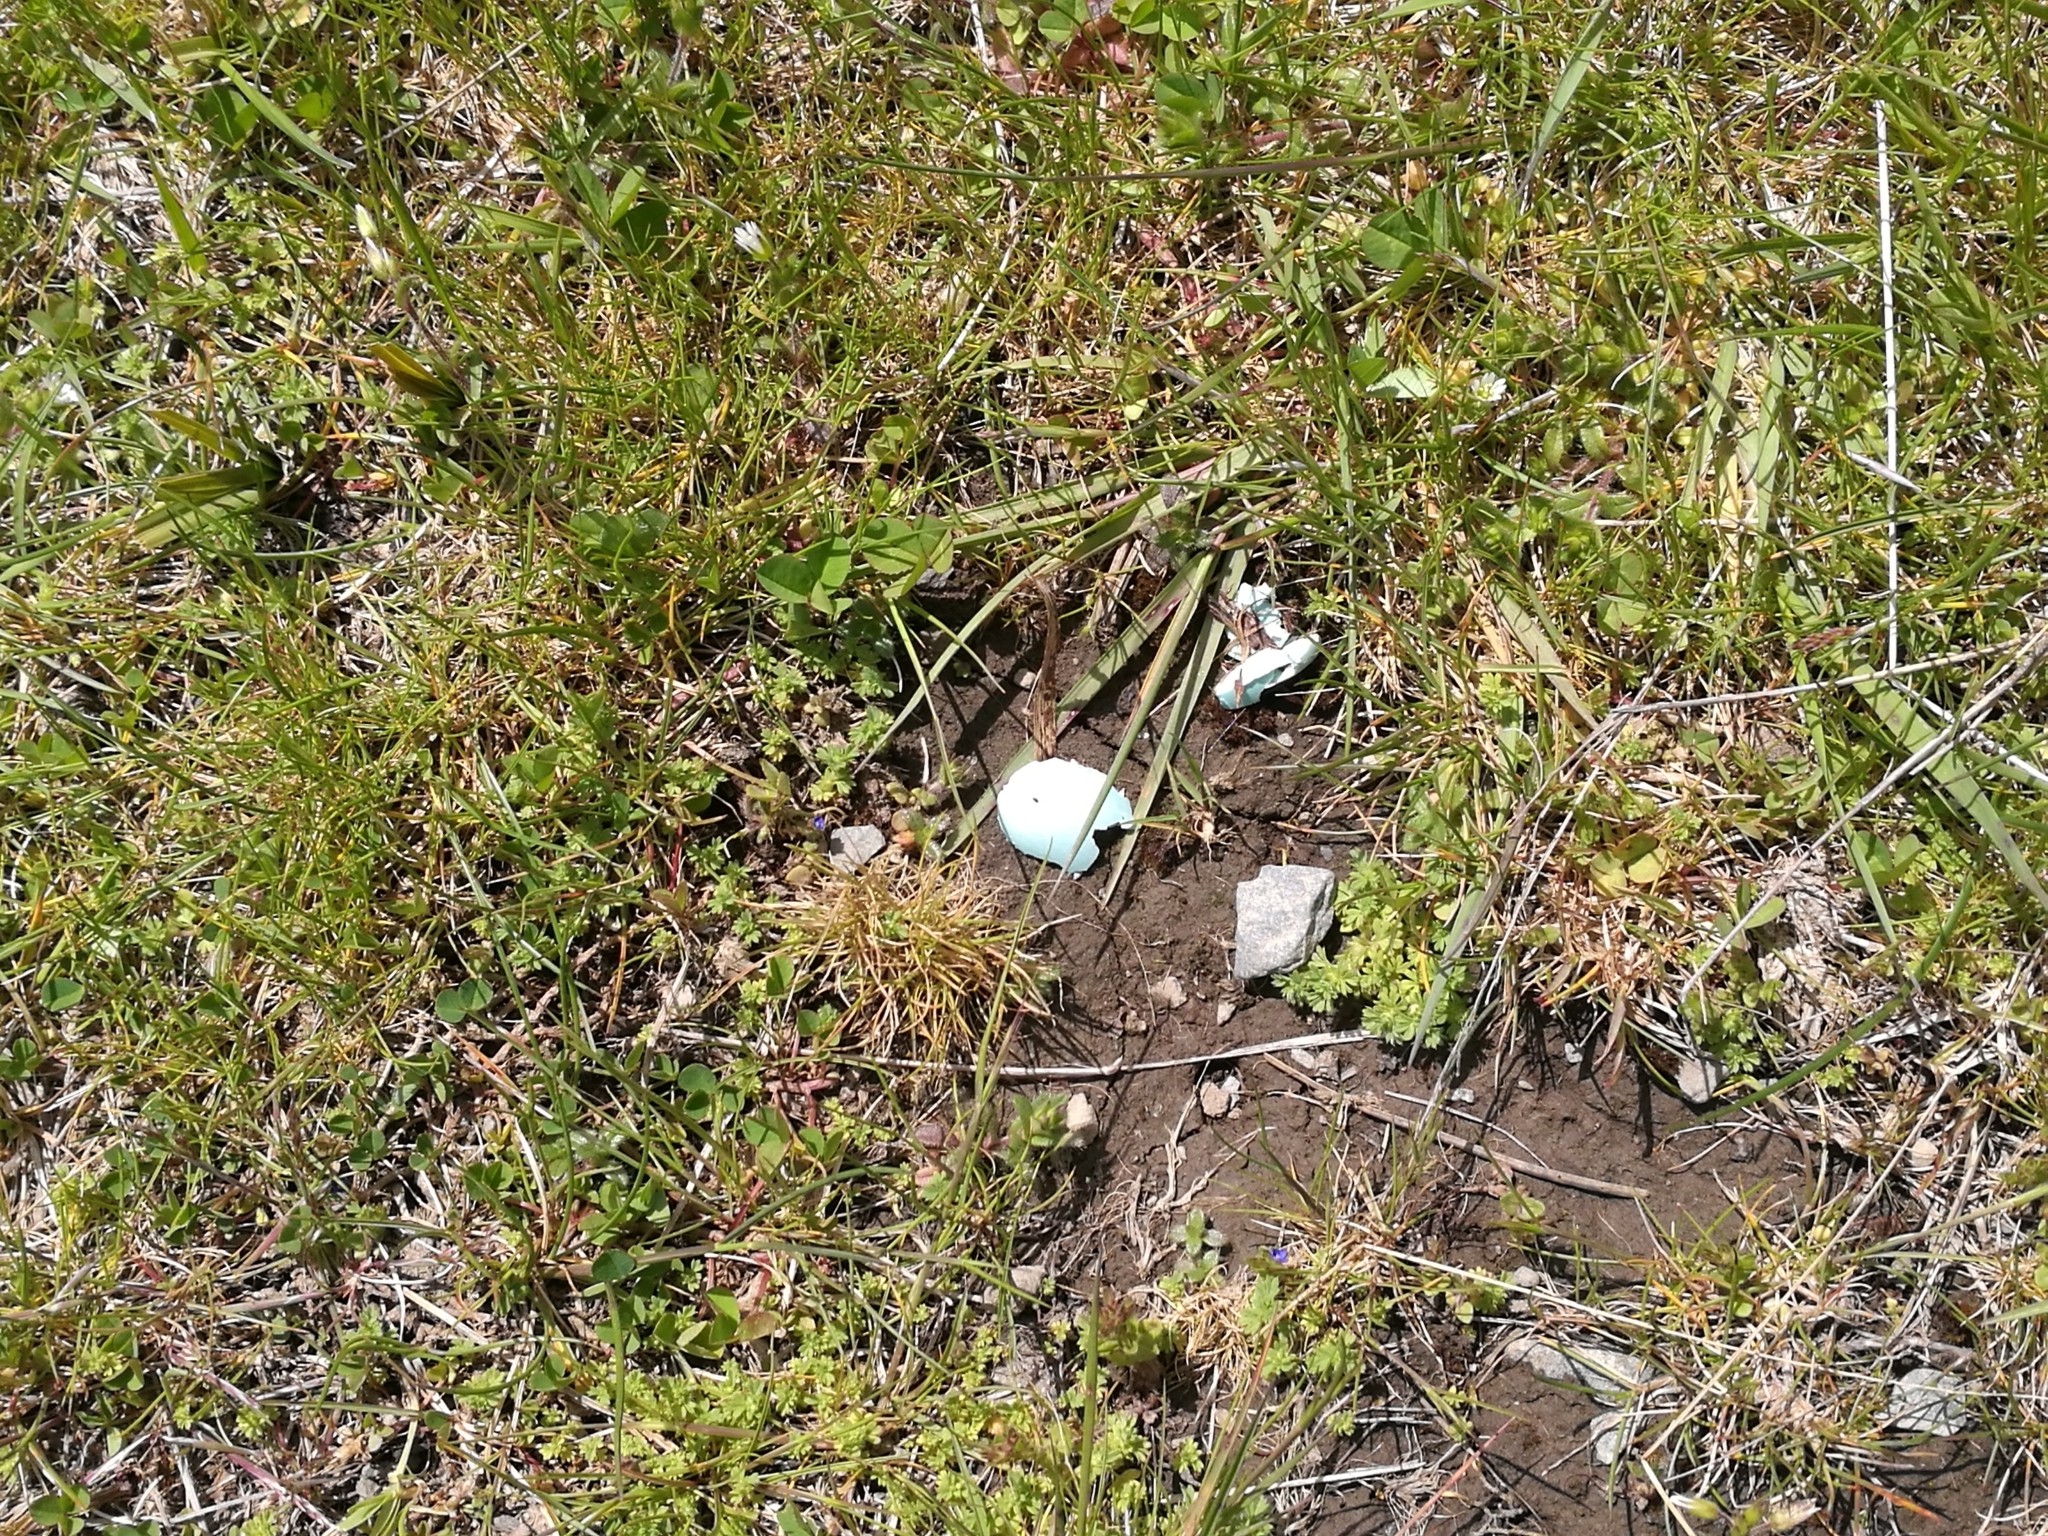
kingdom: Animalia
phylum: Chordata
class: Aves
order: Passeriformes
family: Sturnidae
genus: Sturnus
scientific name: Sturnus vulgaris
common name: Common starling
